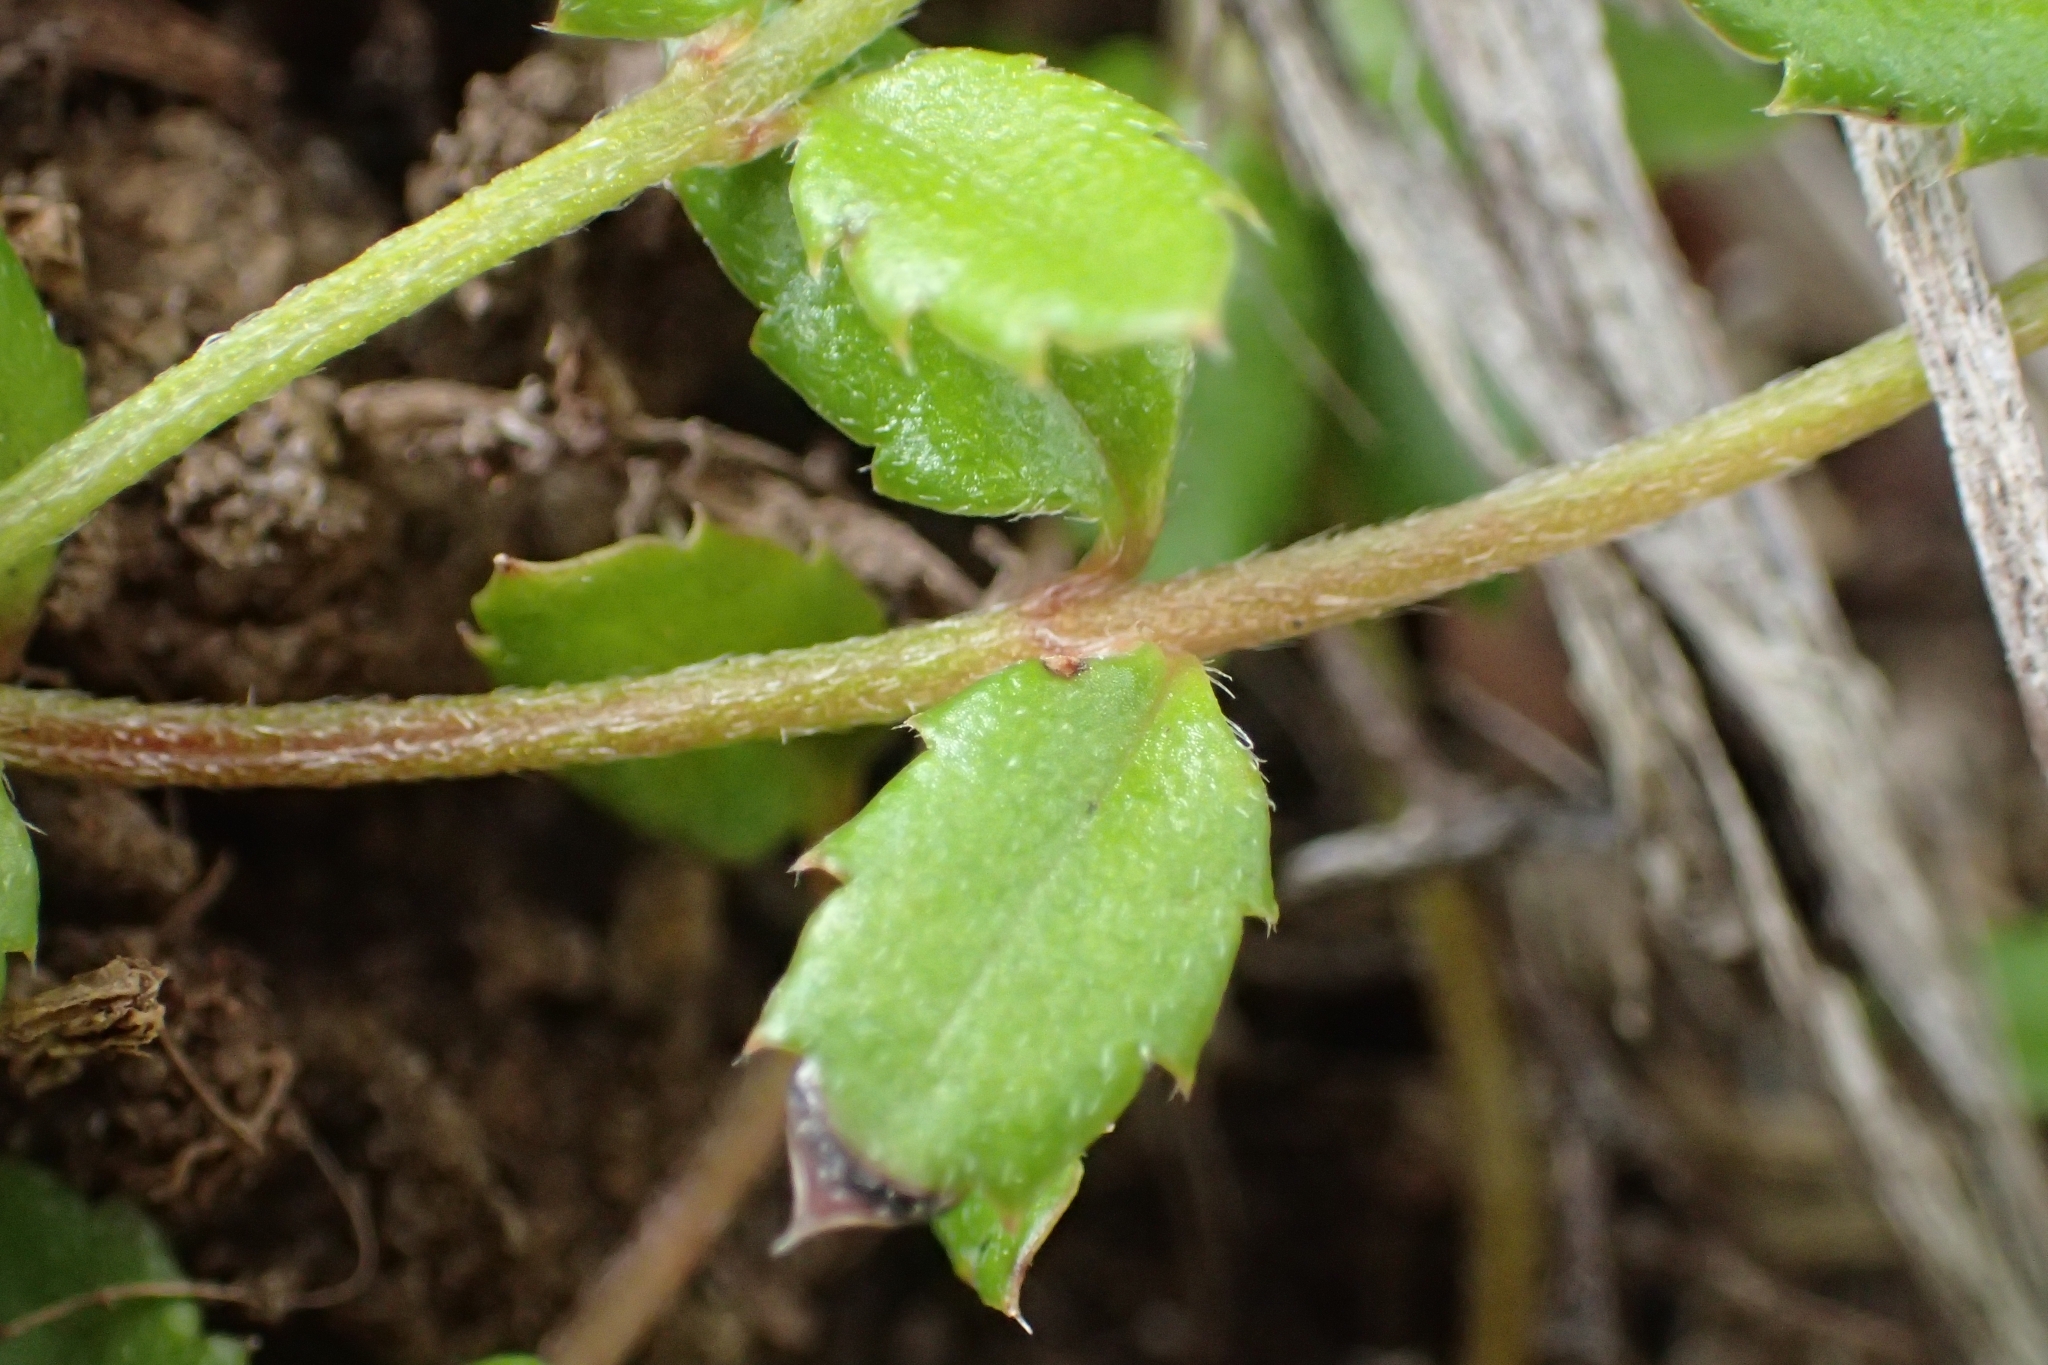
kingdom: Plantae
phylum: Tracheophyta
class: Magnoliopsida
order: Saxifragales
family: Haloragaceae
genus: Gonocarpus
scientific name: Gonocarpus incanus
